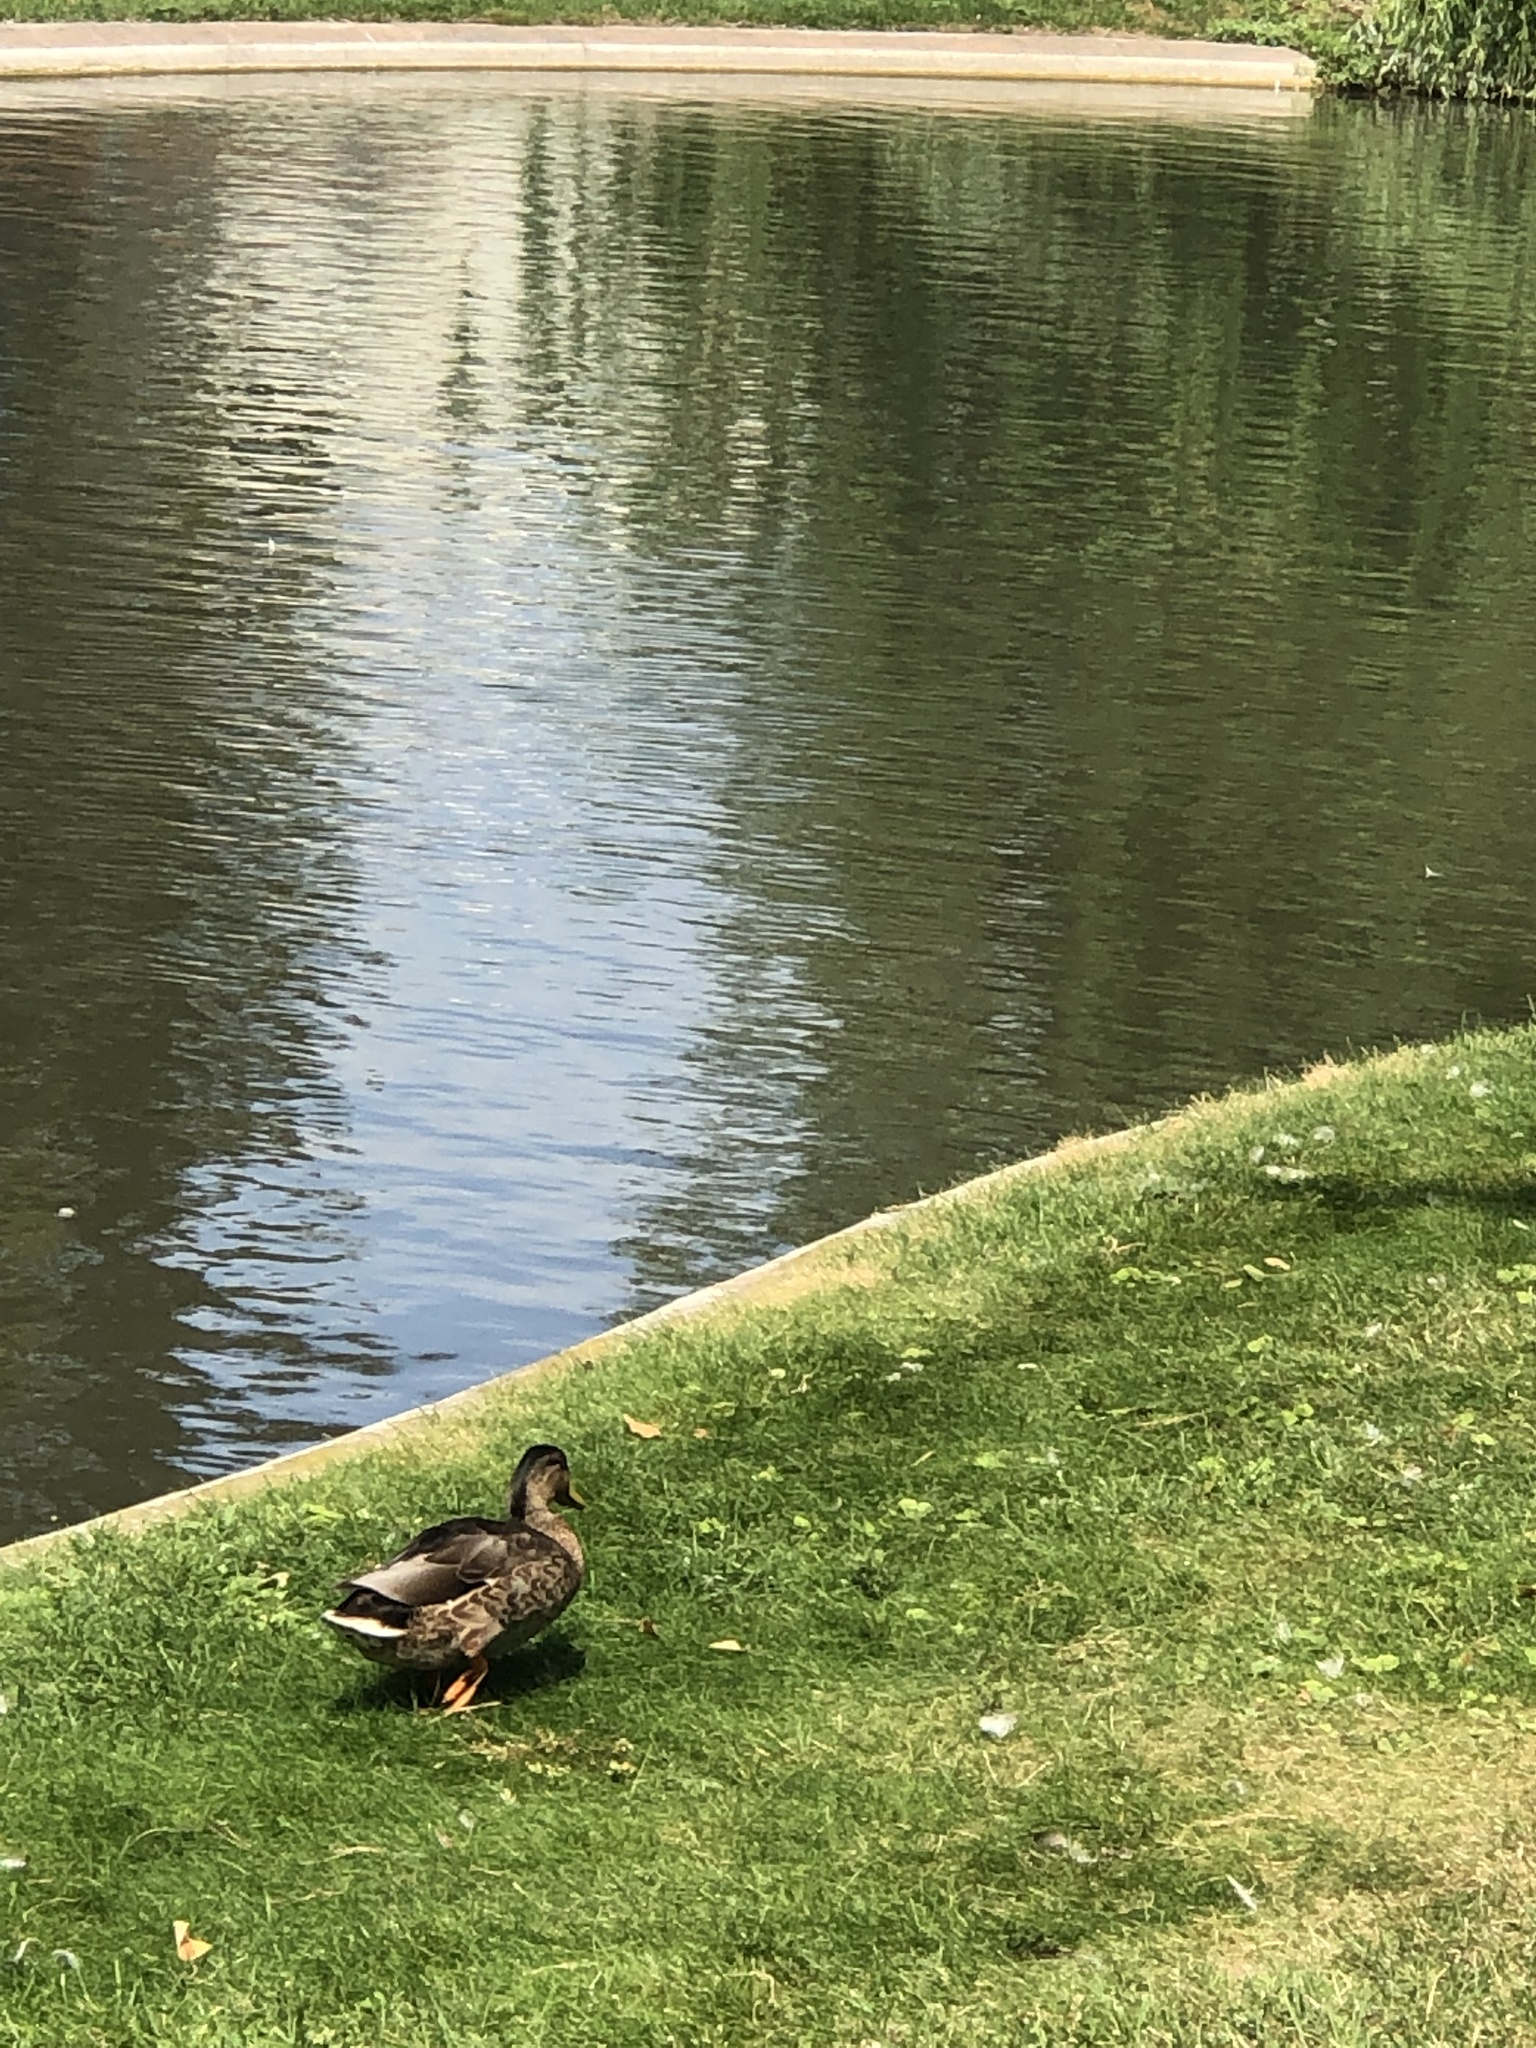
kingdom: Animalia
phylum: Chordata
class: Aves
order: Anseriformes
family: Anatidae
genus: Anas
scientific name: Anas platyrhynchos
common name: Mallard
